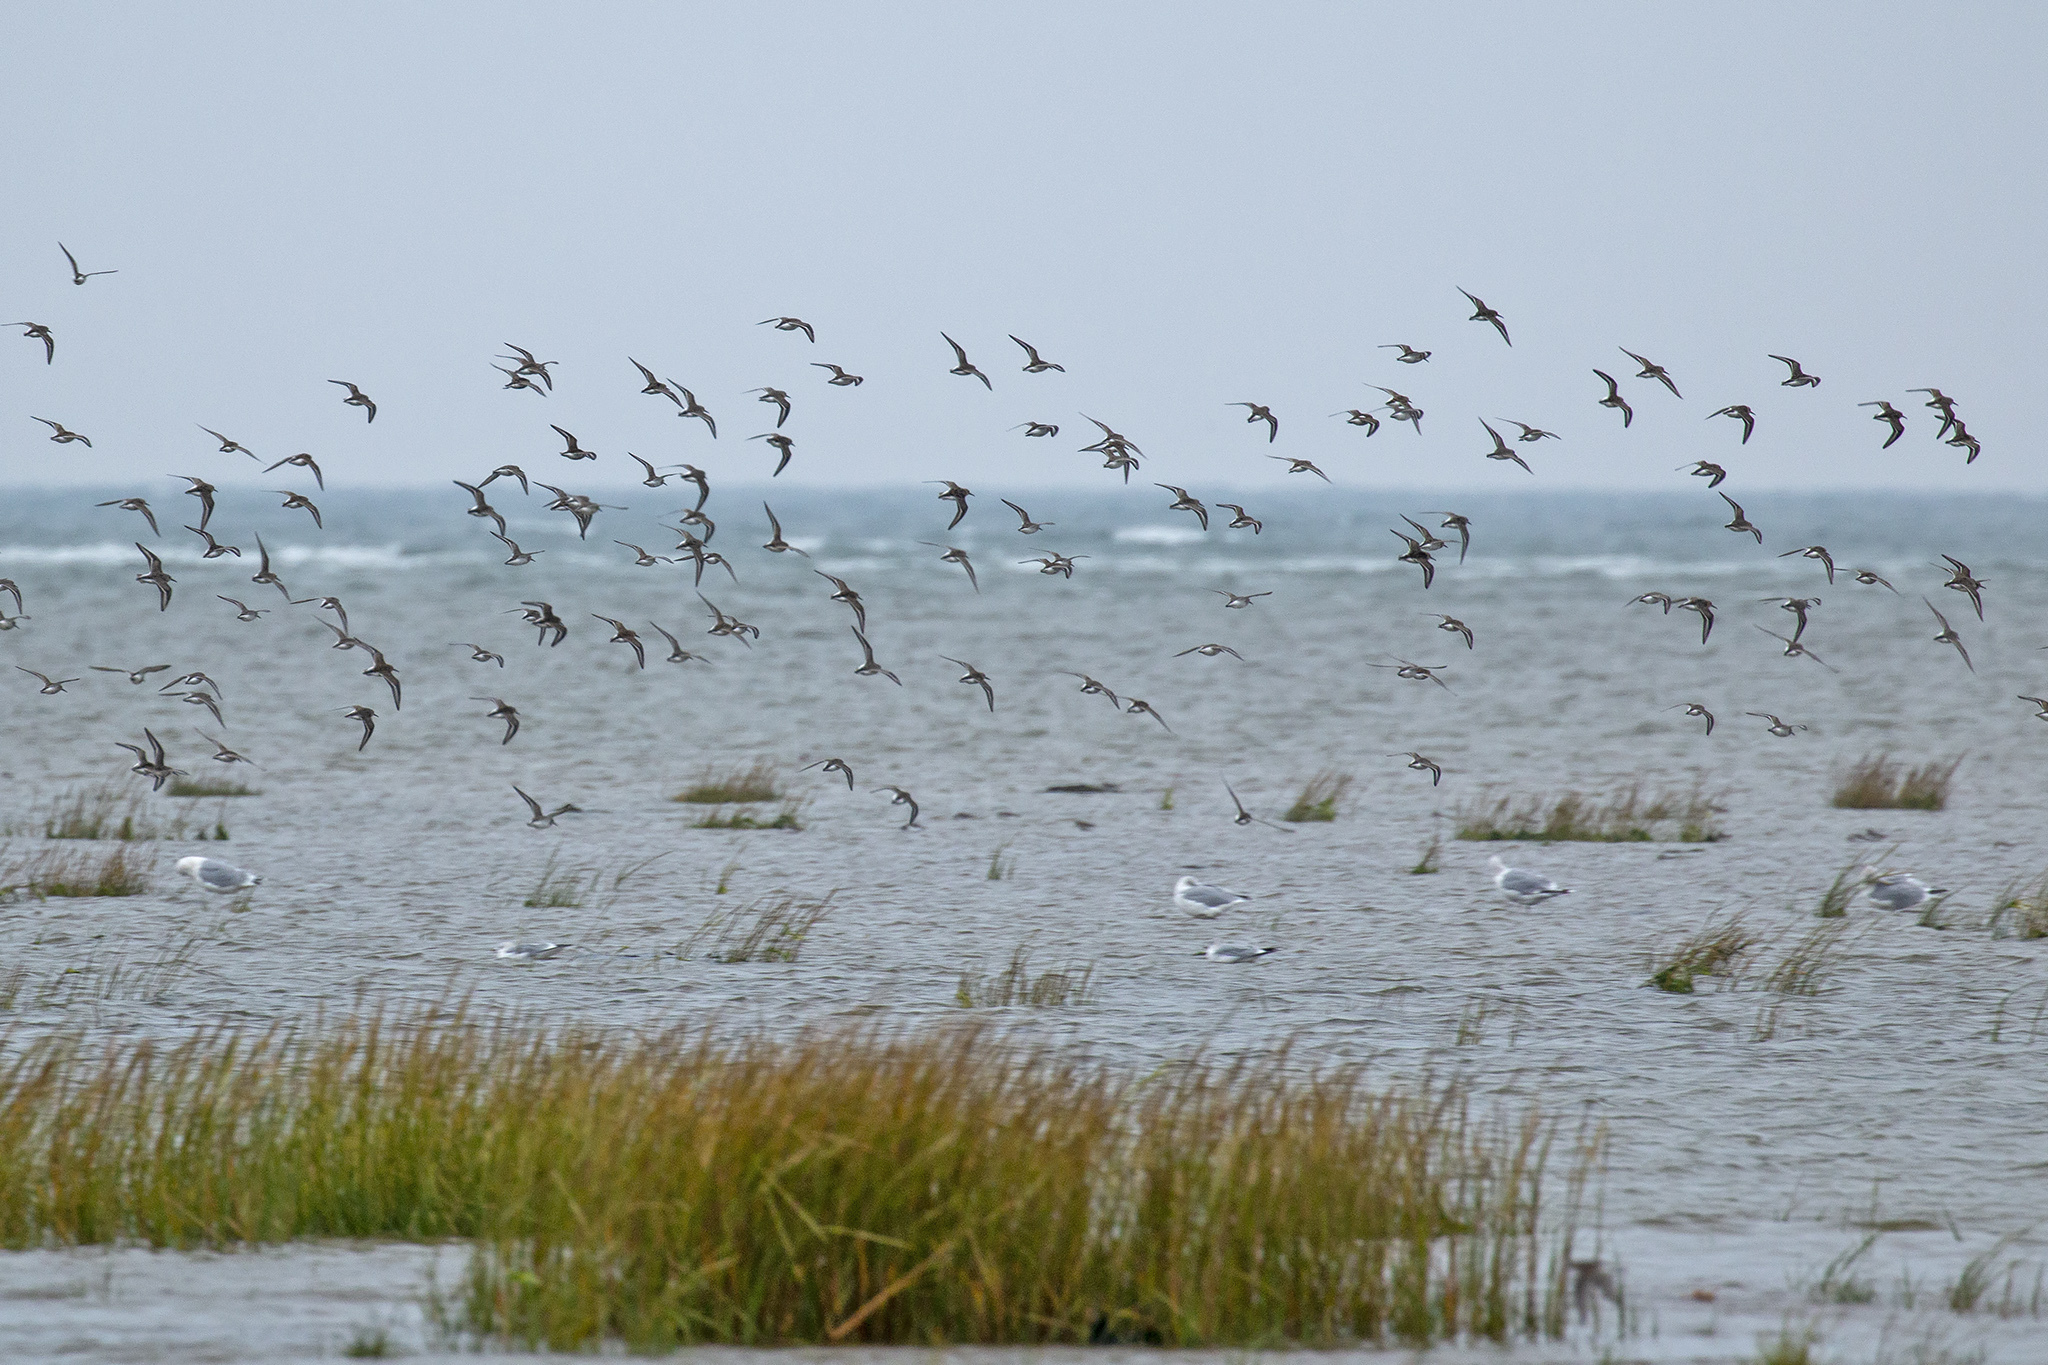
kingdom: Animalia
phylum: Chordata
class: Aves
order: Charadriiformes
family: Scolopacidae
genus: Calidris
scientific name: Calidris alpina
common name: Dunlin
